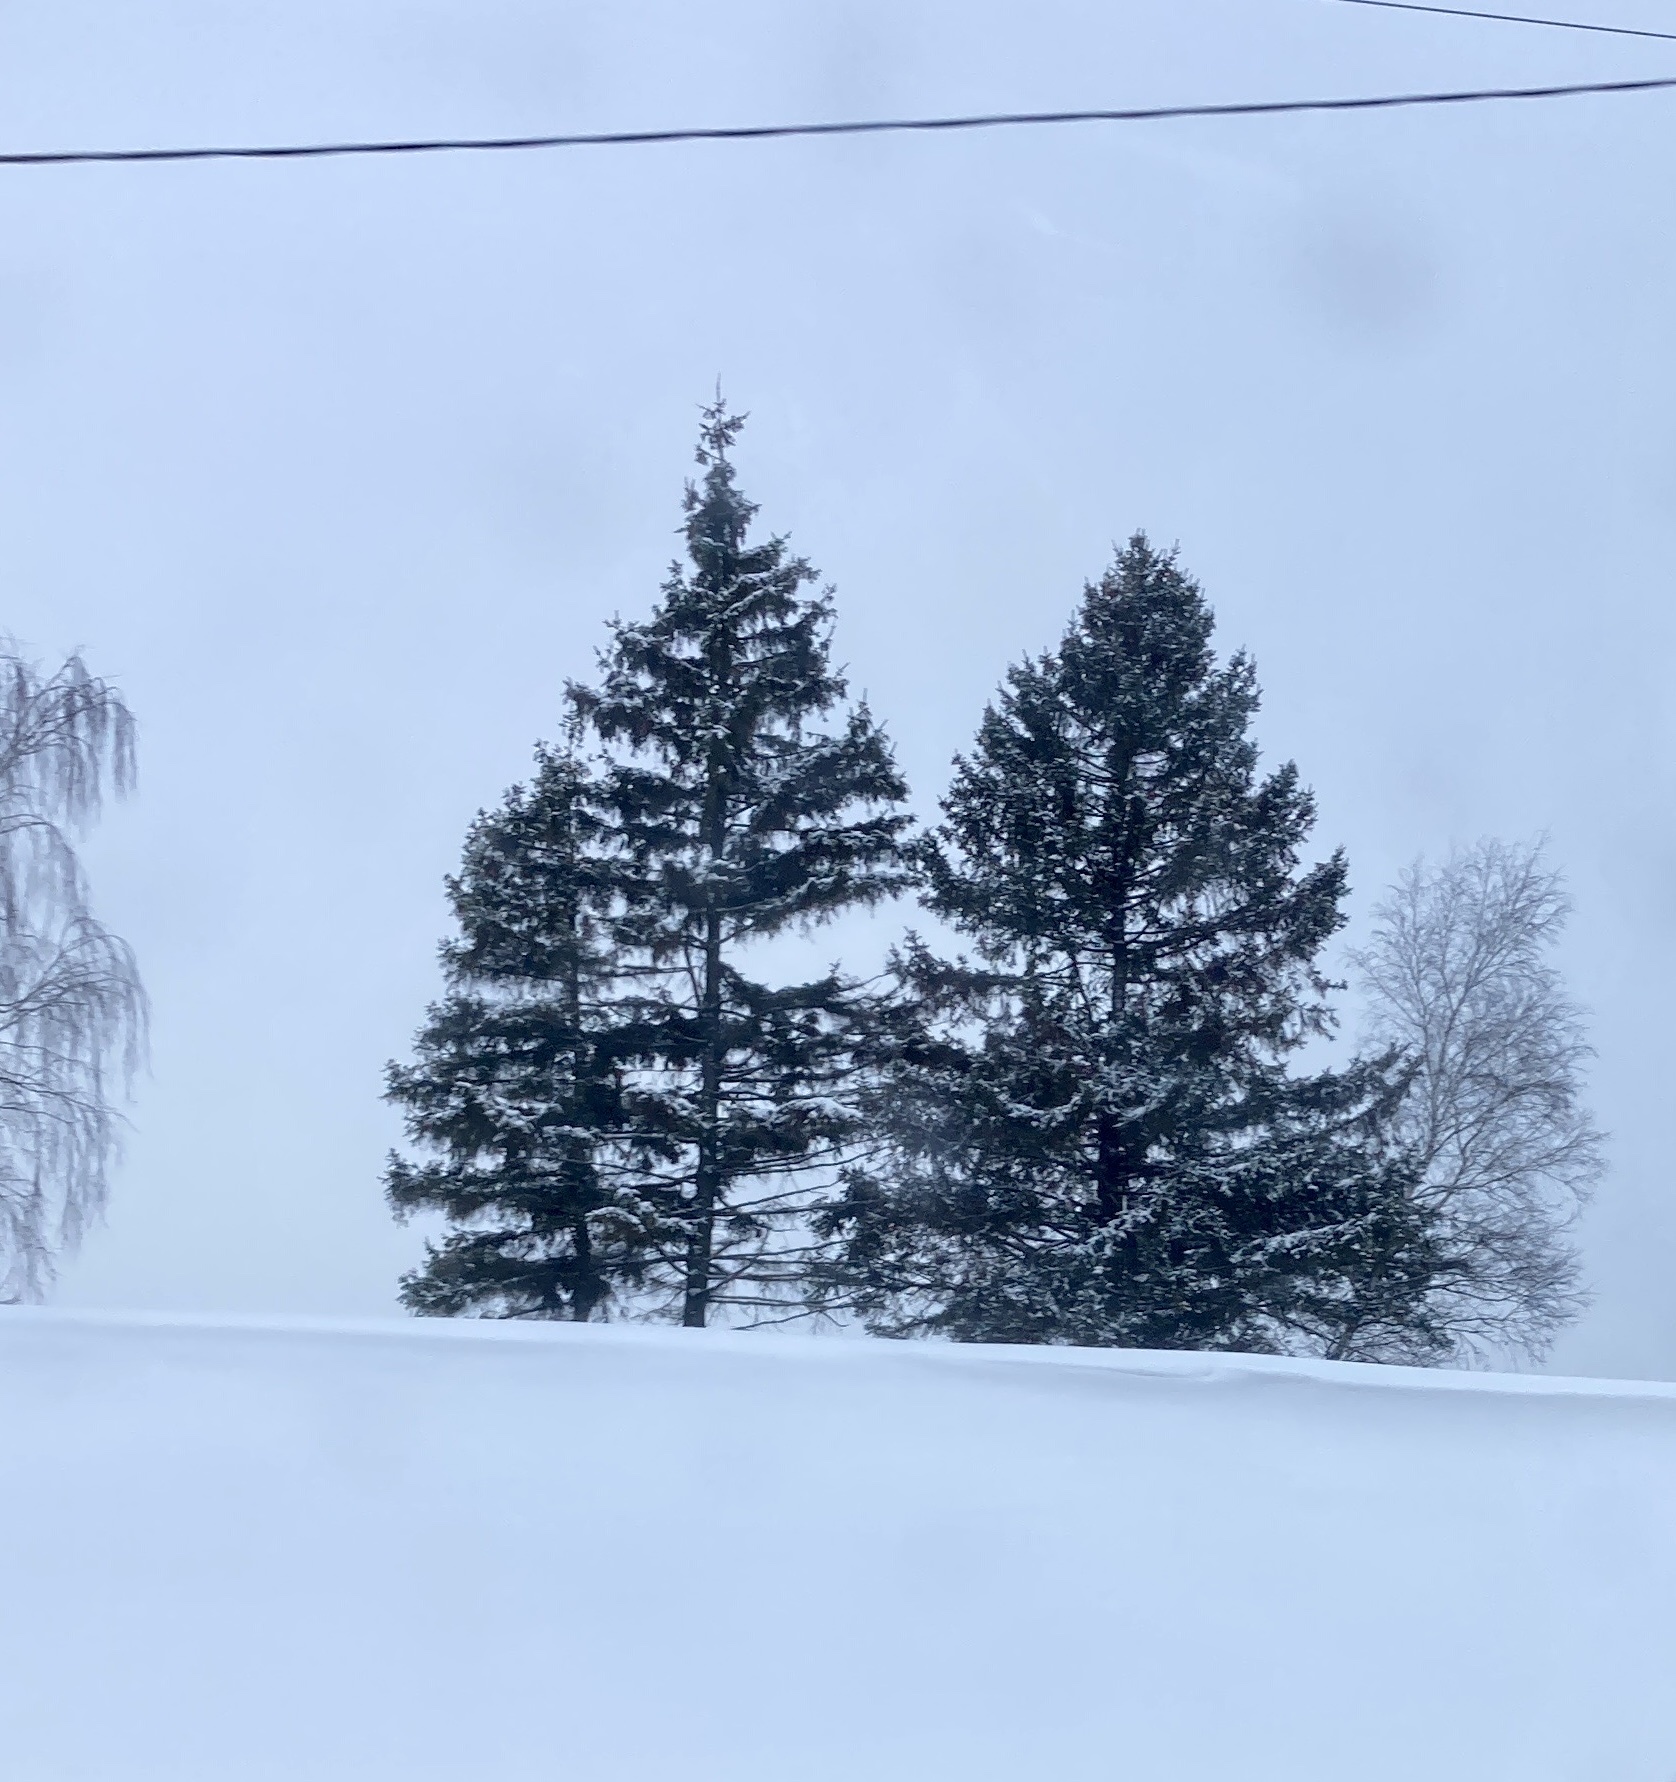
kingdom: Plantae
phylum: Tracheophyta
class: Pinopsida
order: Pinales
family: Pinaceae
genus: Picea
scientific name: Picea abies
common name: Norway spruce
